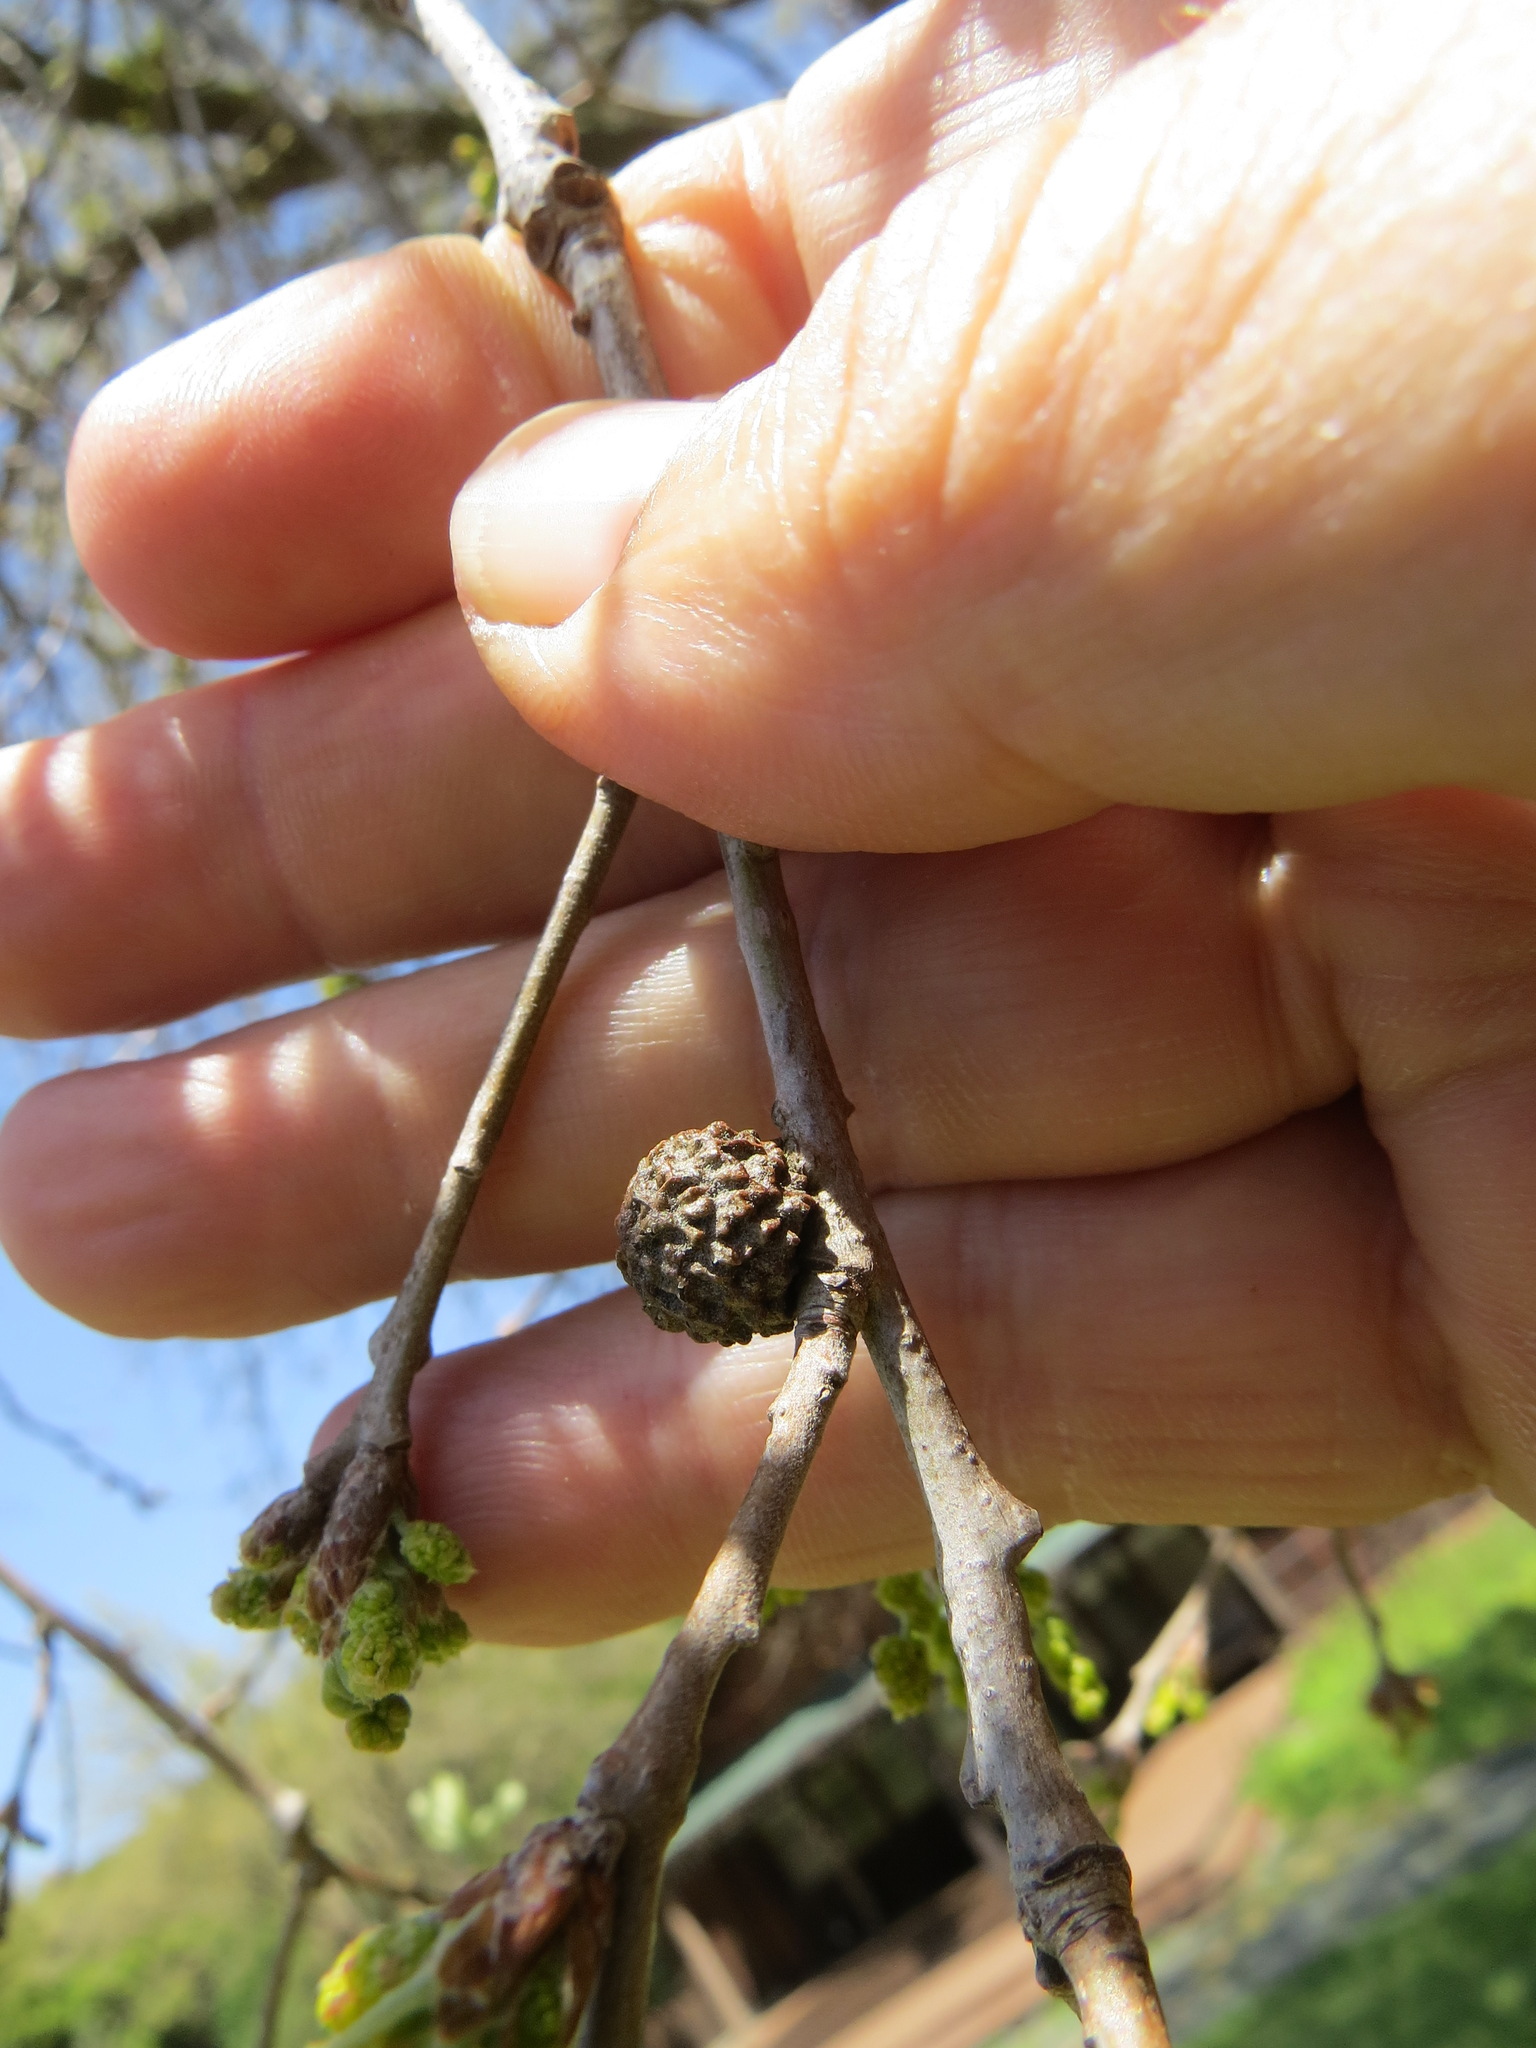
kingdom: Animalia
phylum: Arthropoda
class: Insecta
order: Hymenoptera
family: Cynipidae
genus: Cynips
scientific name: Cynips conspicua
